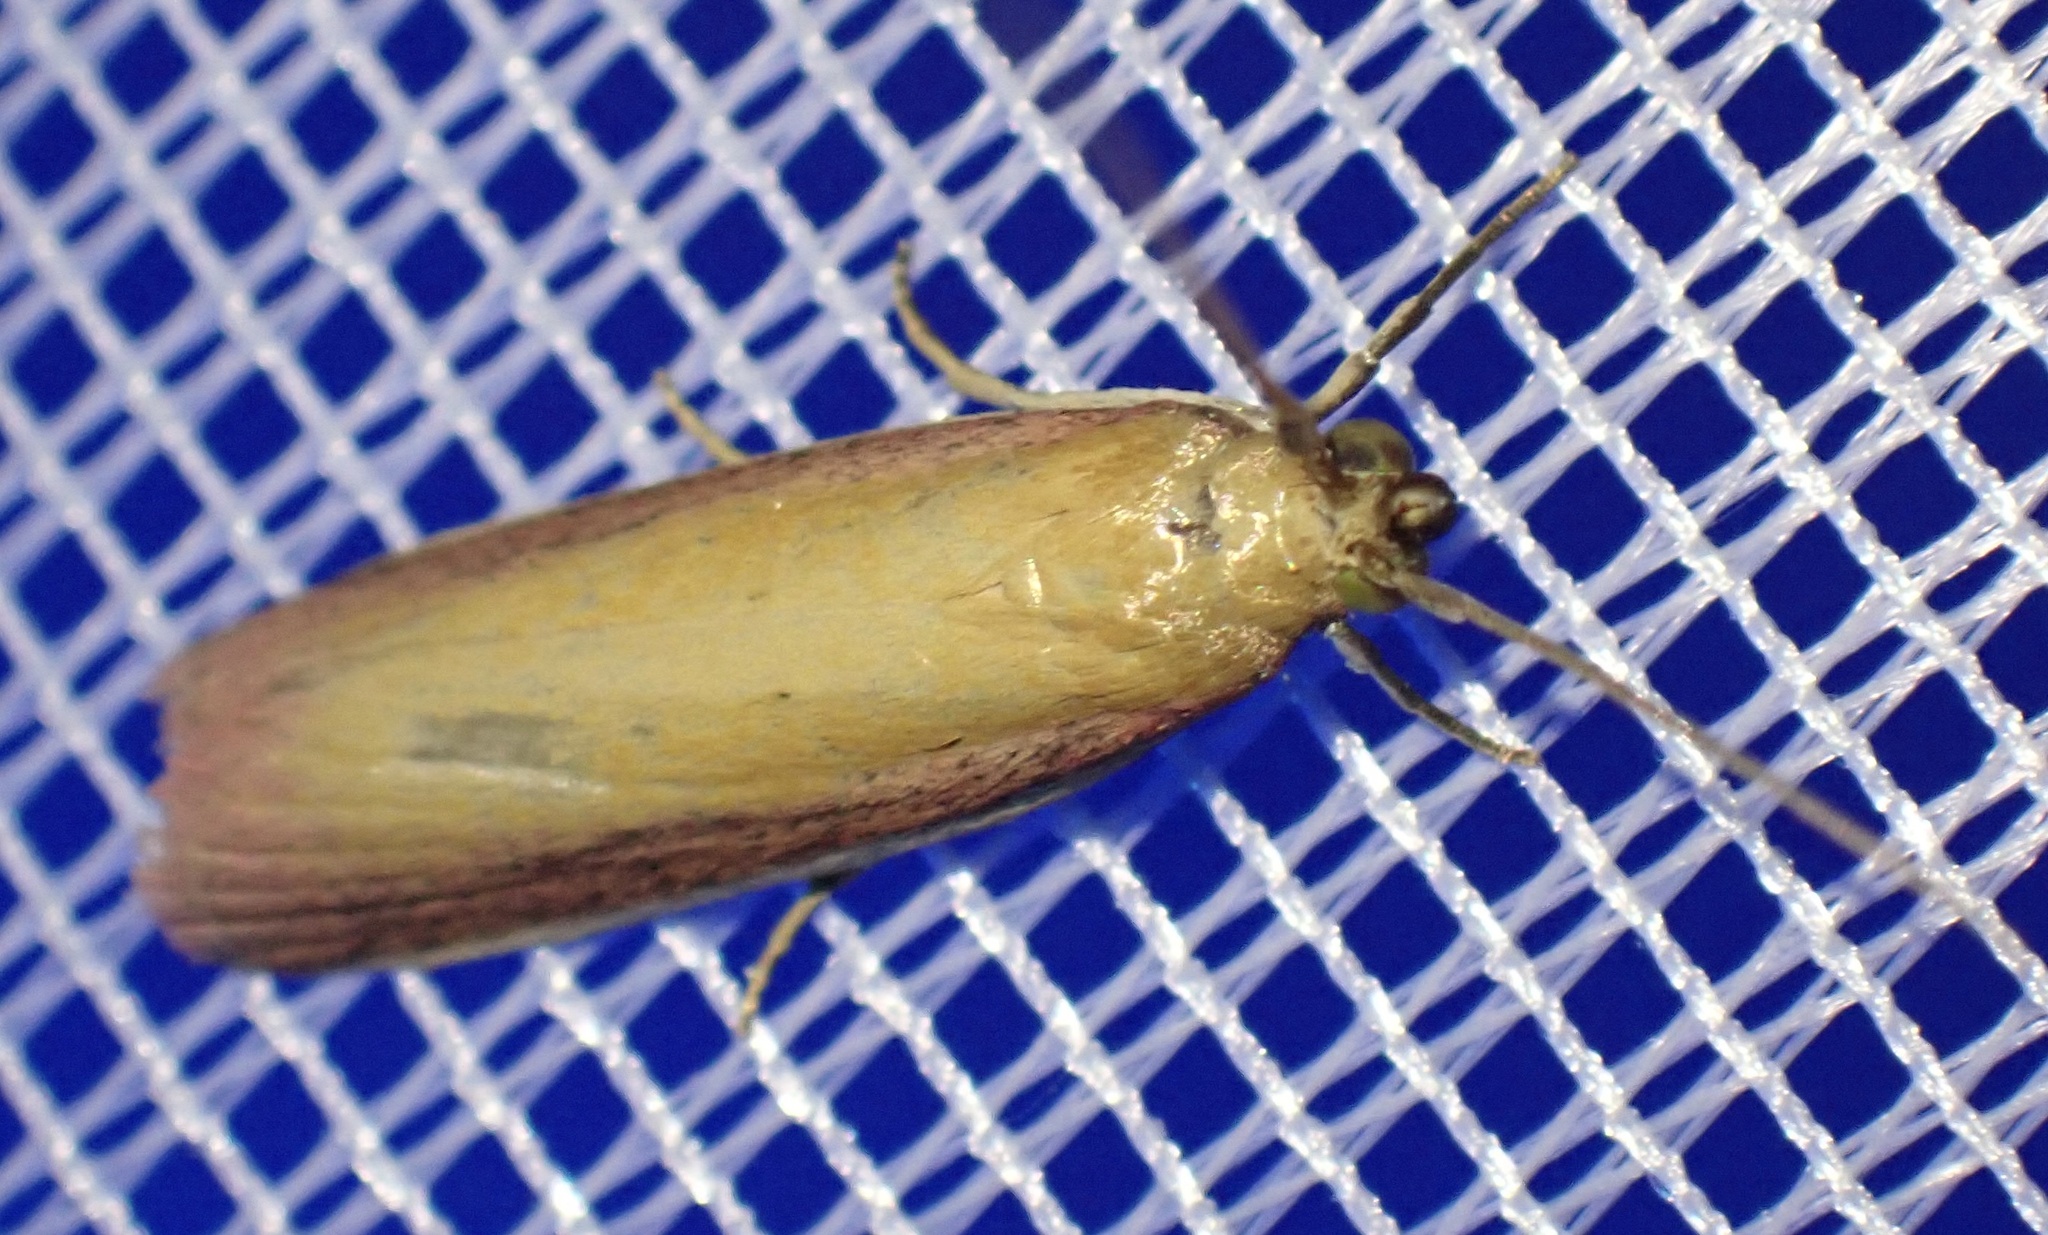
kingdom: Animalia
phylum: Arthropoda
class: Insecta
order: Lepidoptera
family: Pyralidae
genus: Oncocera
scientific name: Oncocera semirubella
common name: Rosy-striped knot-horn
